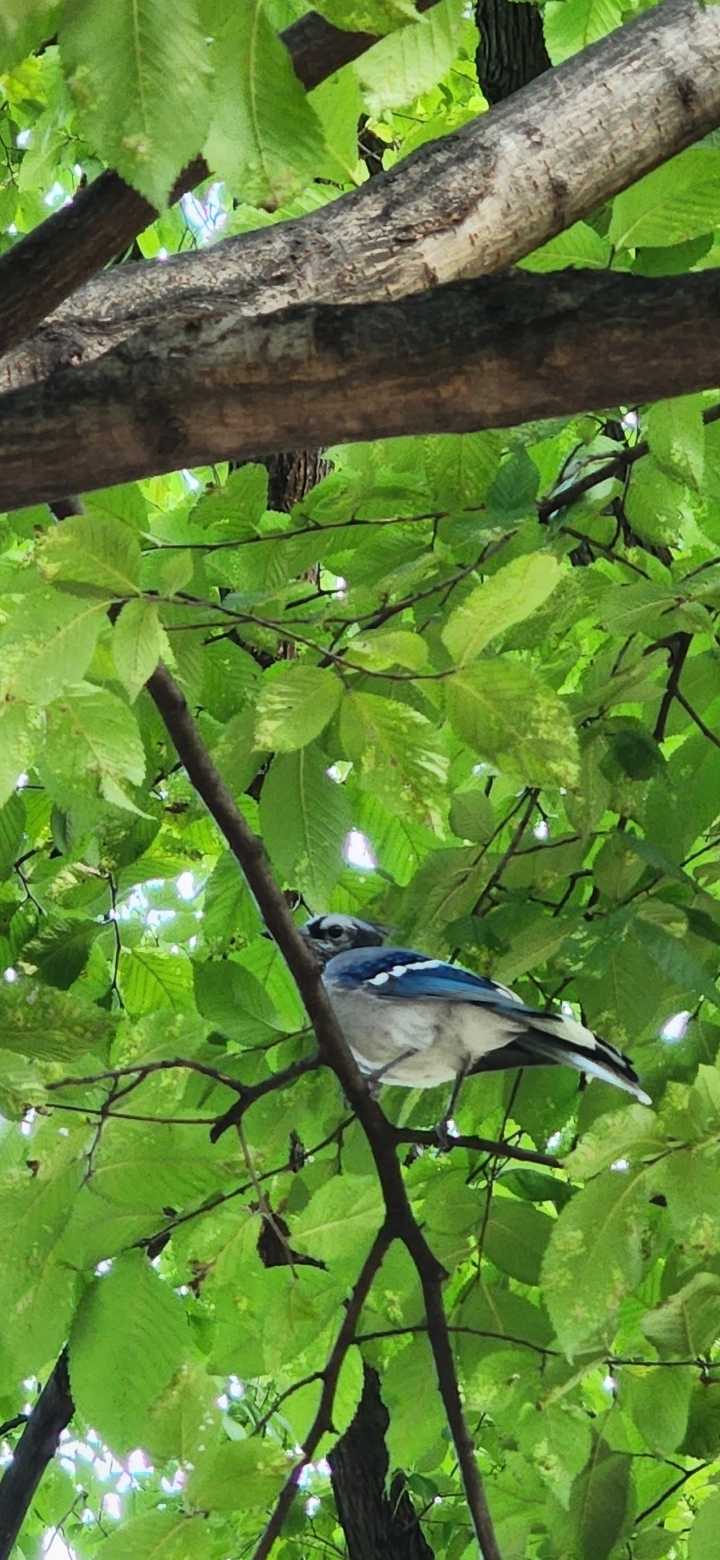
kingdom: Animalia
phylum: Chordata
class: Aves
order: Passeriformes
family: Corvidae
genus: Cyanocitta
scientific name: Cyanocitta cristata
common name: Blue jay
